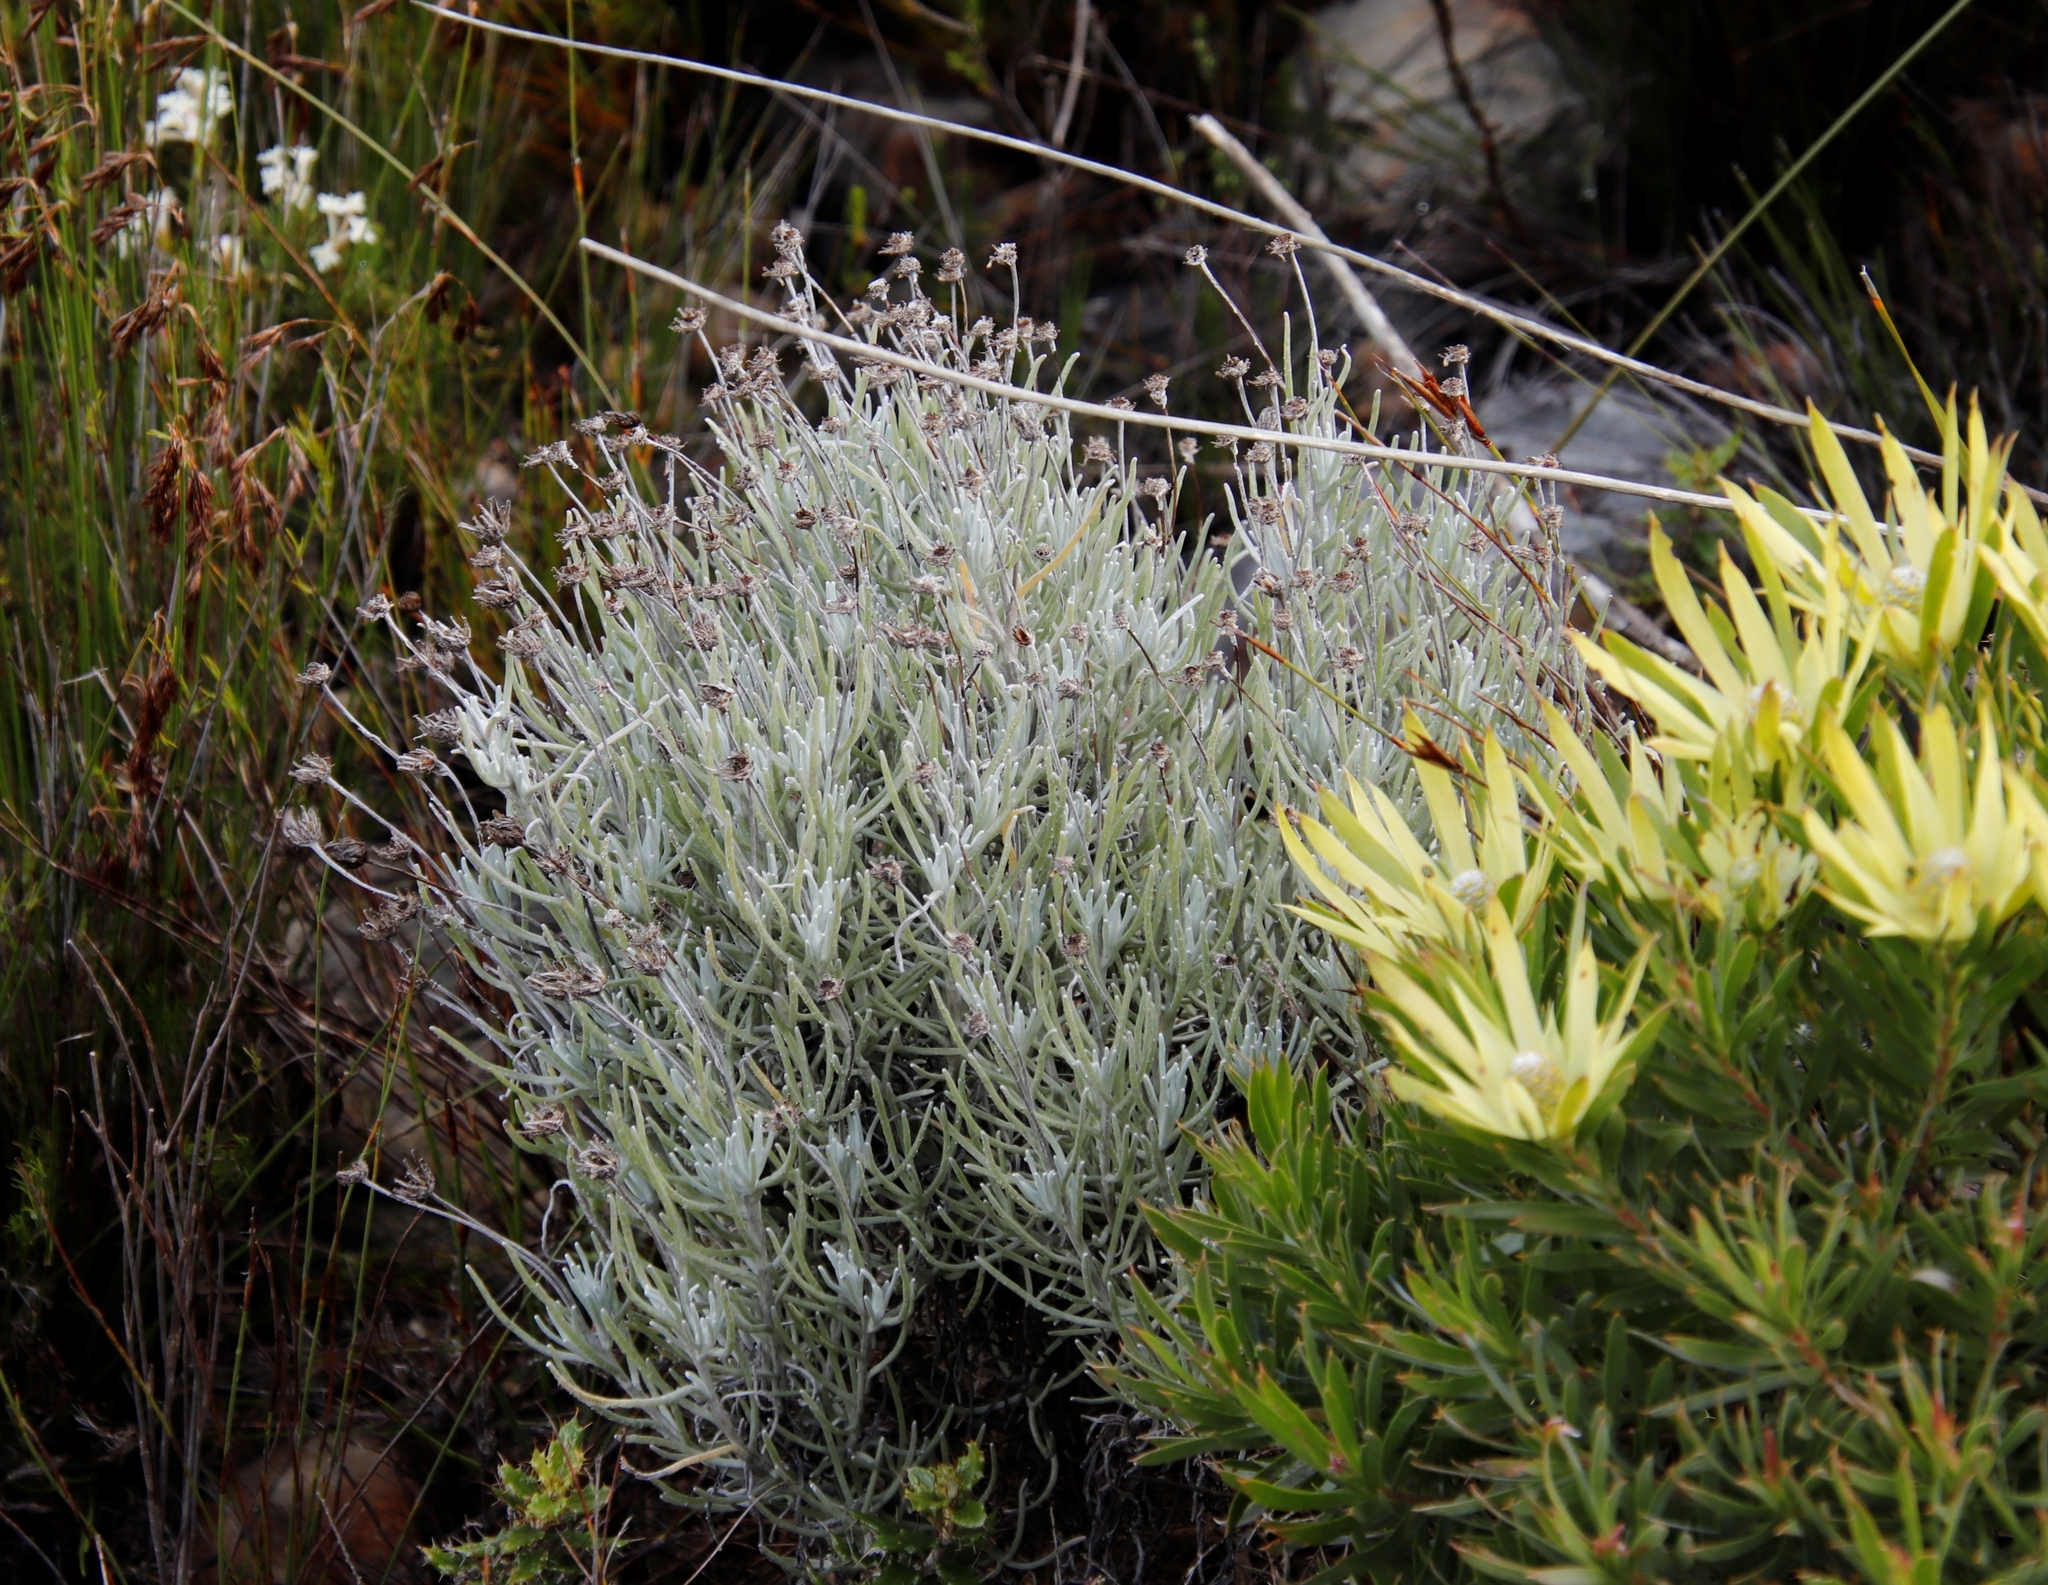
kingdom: Plantae
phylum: Tracheophyta
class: Magnoliopsida
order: Asterales
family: Asteraceae
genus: Syncarpha
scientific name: Syncarpha gnaphaloides
